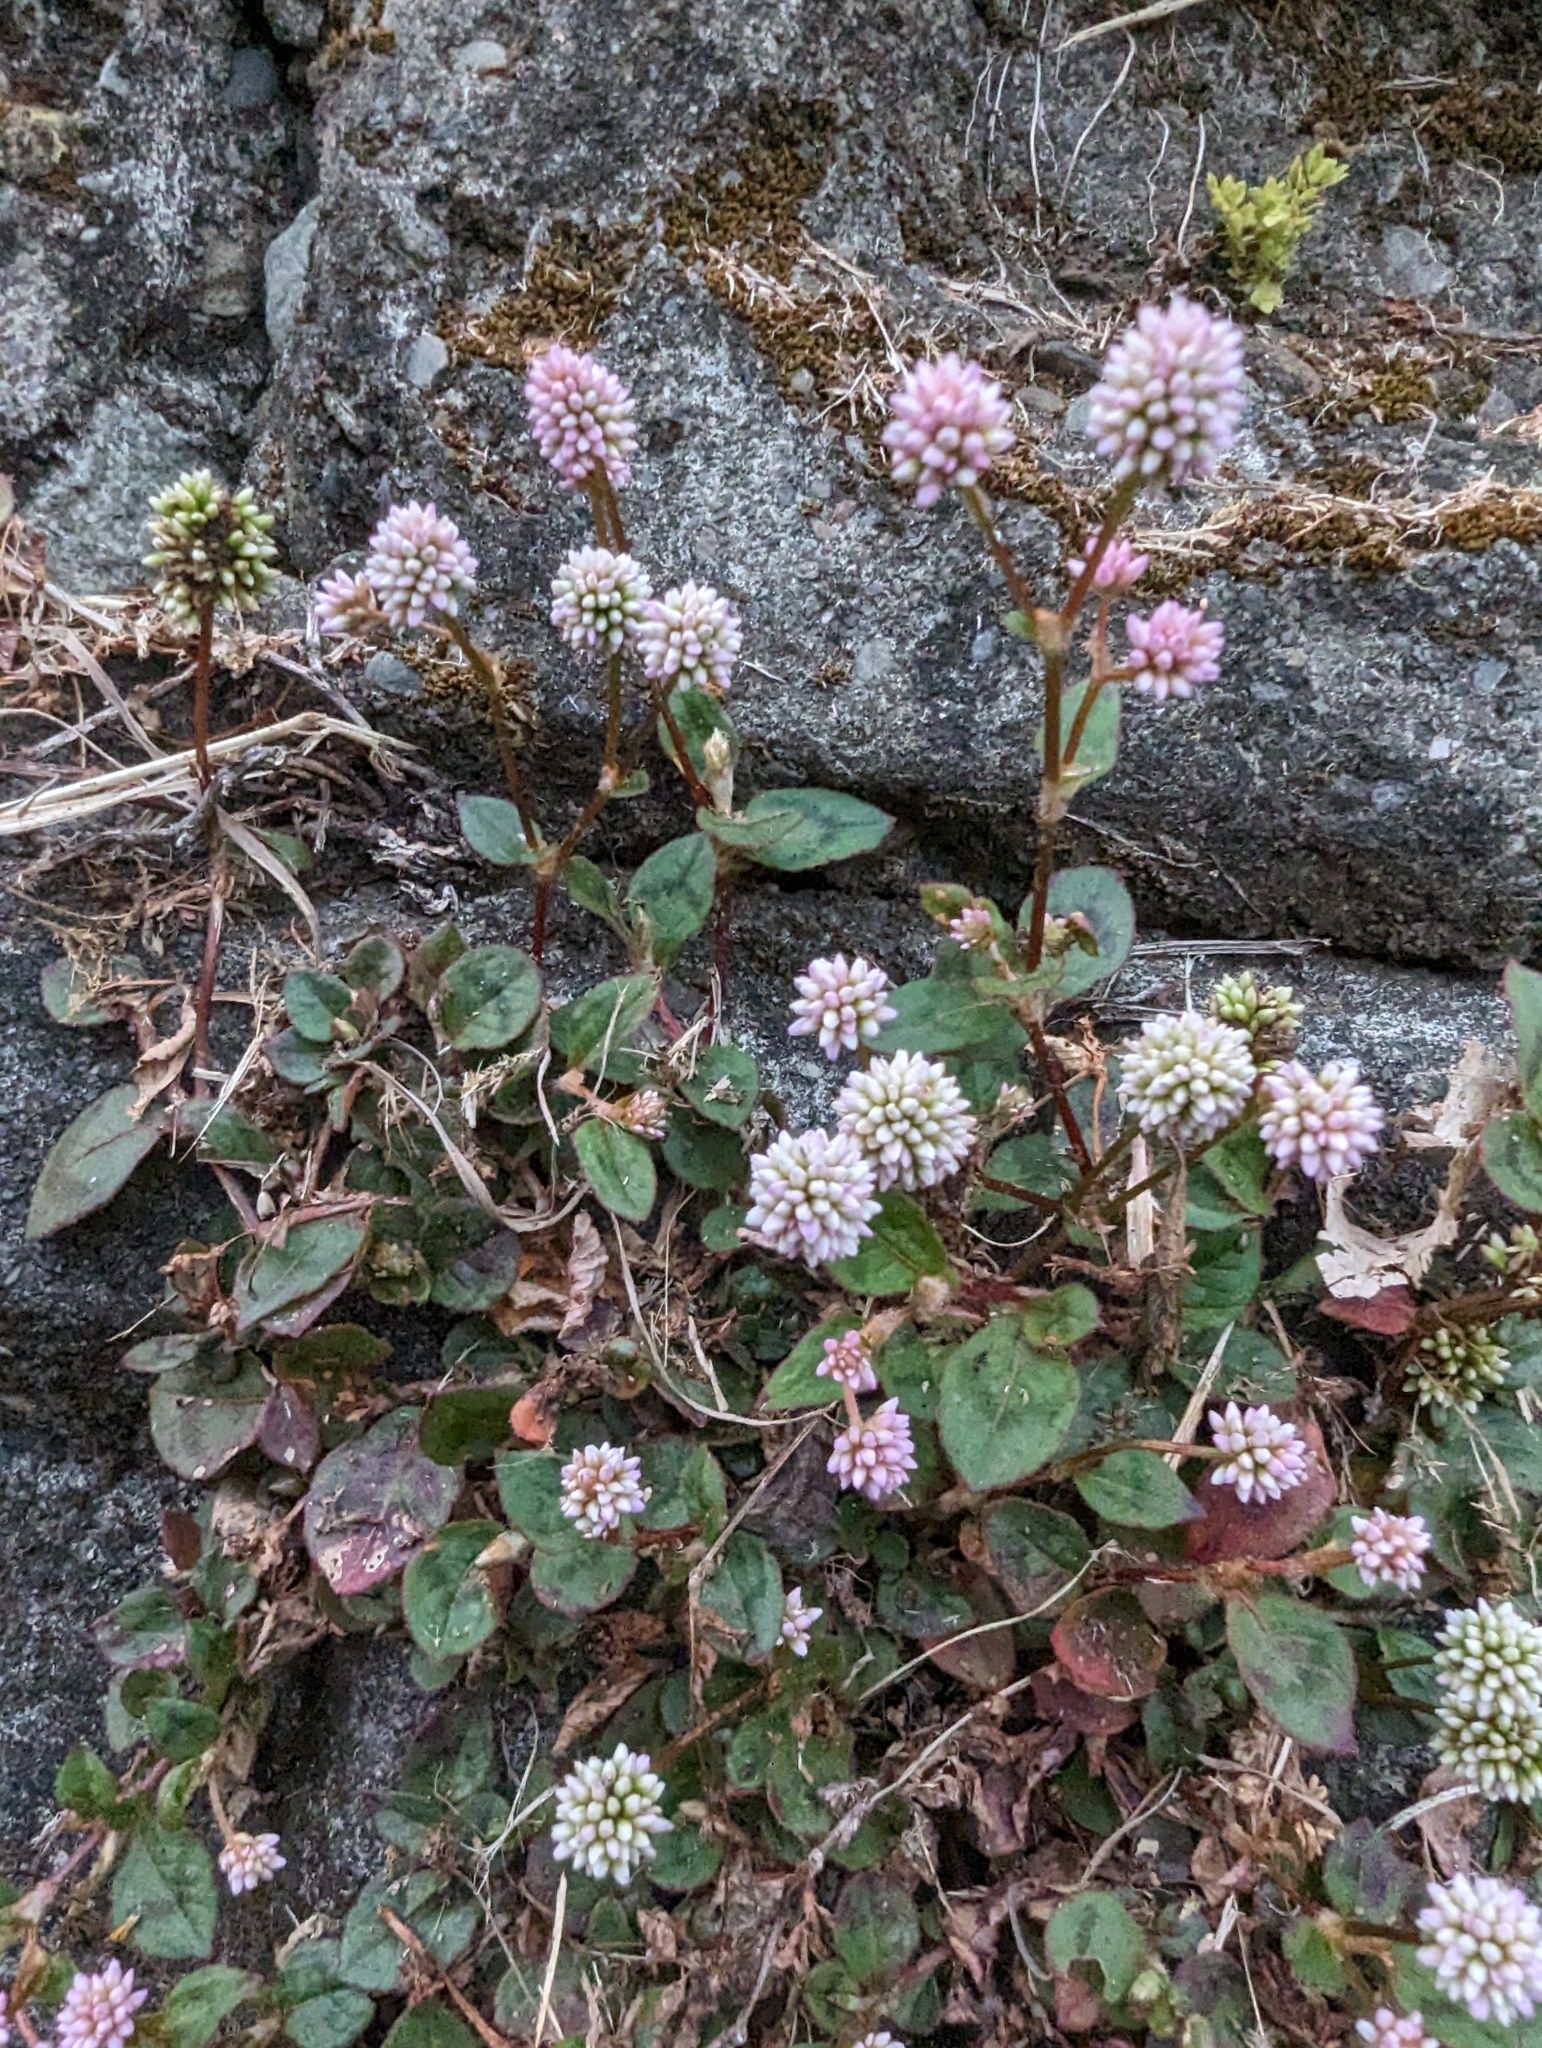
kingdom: Plantae
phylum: Tracheophyta
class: Magnoliopsida
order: Caryophyllales
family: Polygonaceae
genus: Persicaria
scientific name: Persicaria capitata
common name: Pinkhead smartweed
